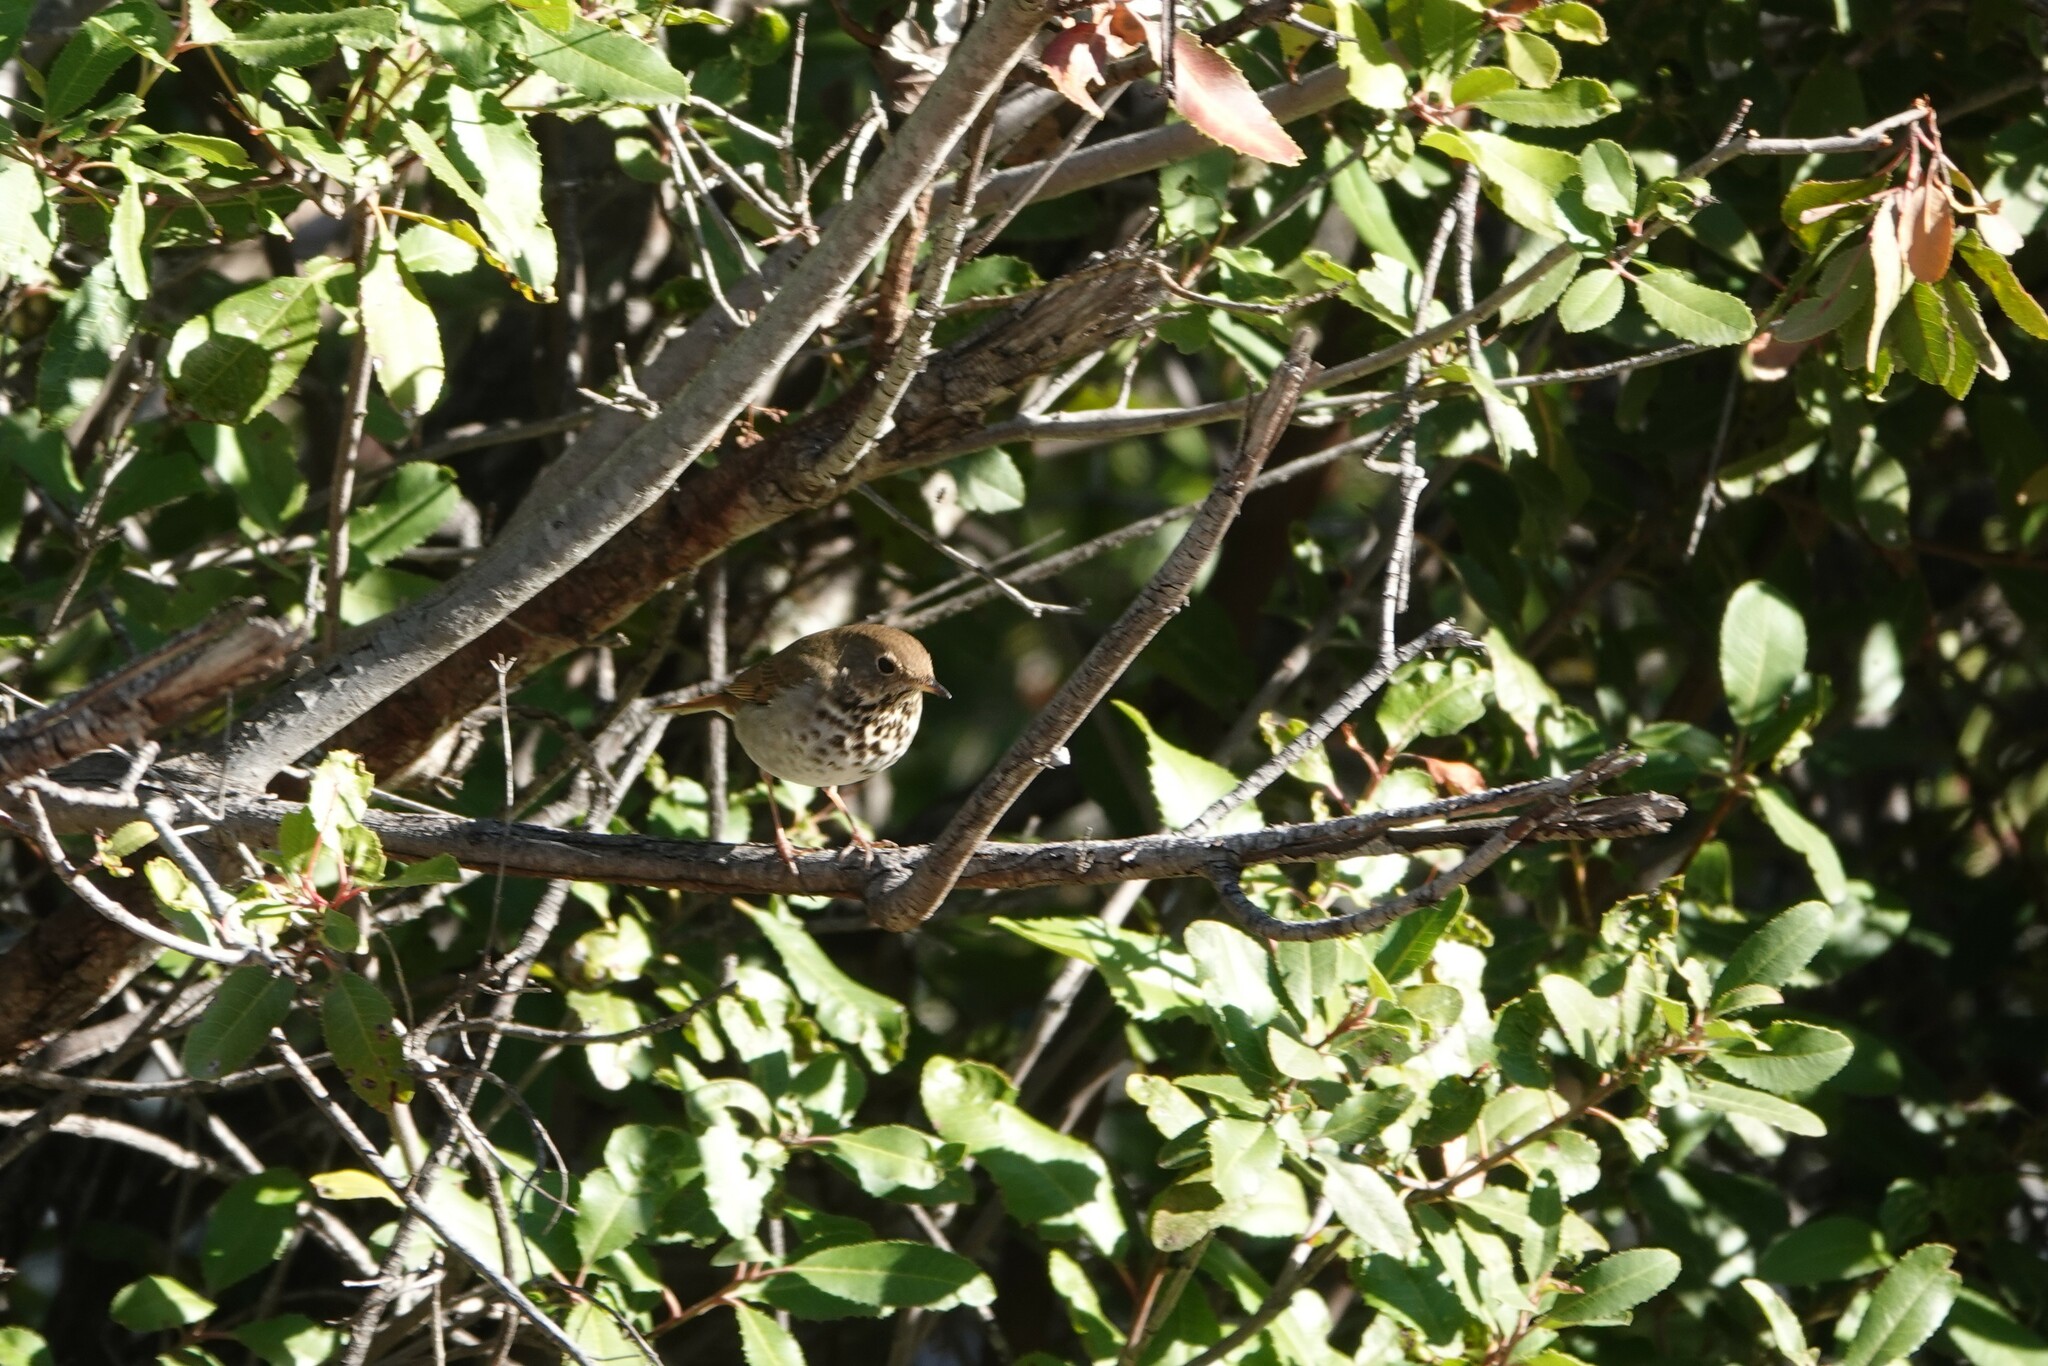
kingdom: Animalia
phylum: Chordata
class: Aves
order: Passeriformes
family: Turdidae
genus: Catharus
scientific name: Catharus guttatus
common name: Hermit thrush
